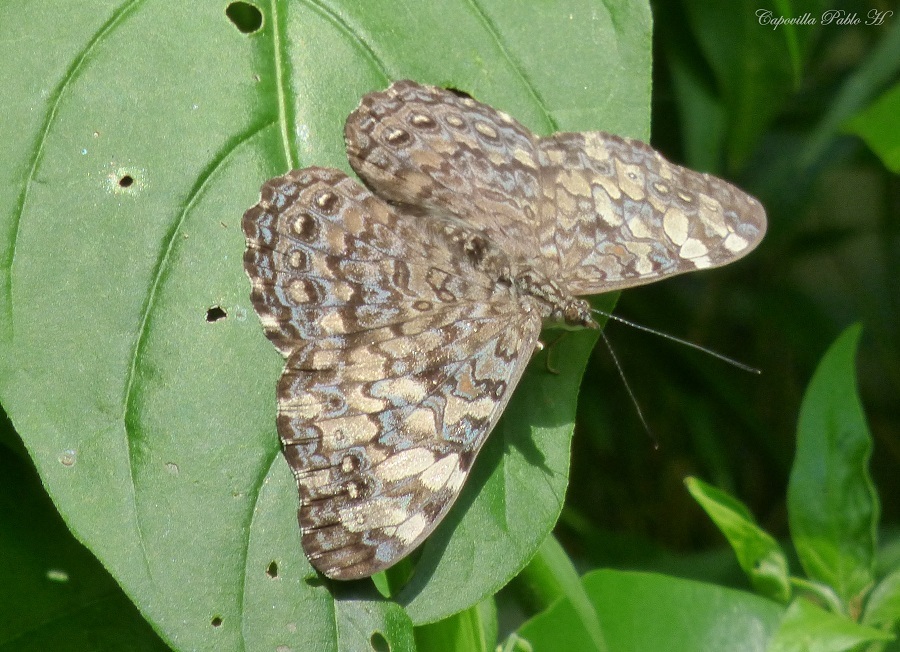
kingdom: Animalia
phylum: Arthropoda
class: Insecta
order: Lepidoptera
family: Nymphalidae
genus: Hamadryas
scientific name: Hamadryas epinome
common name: Epinome cracker
